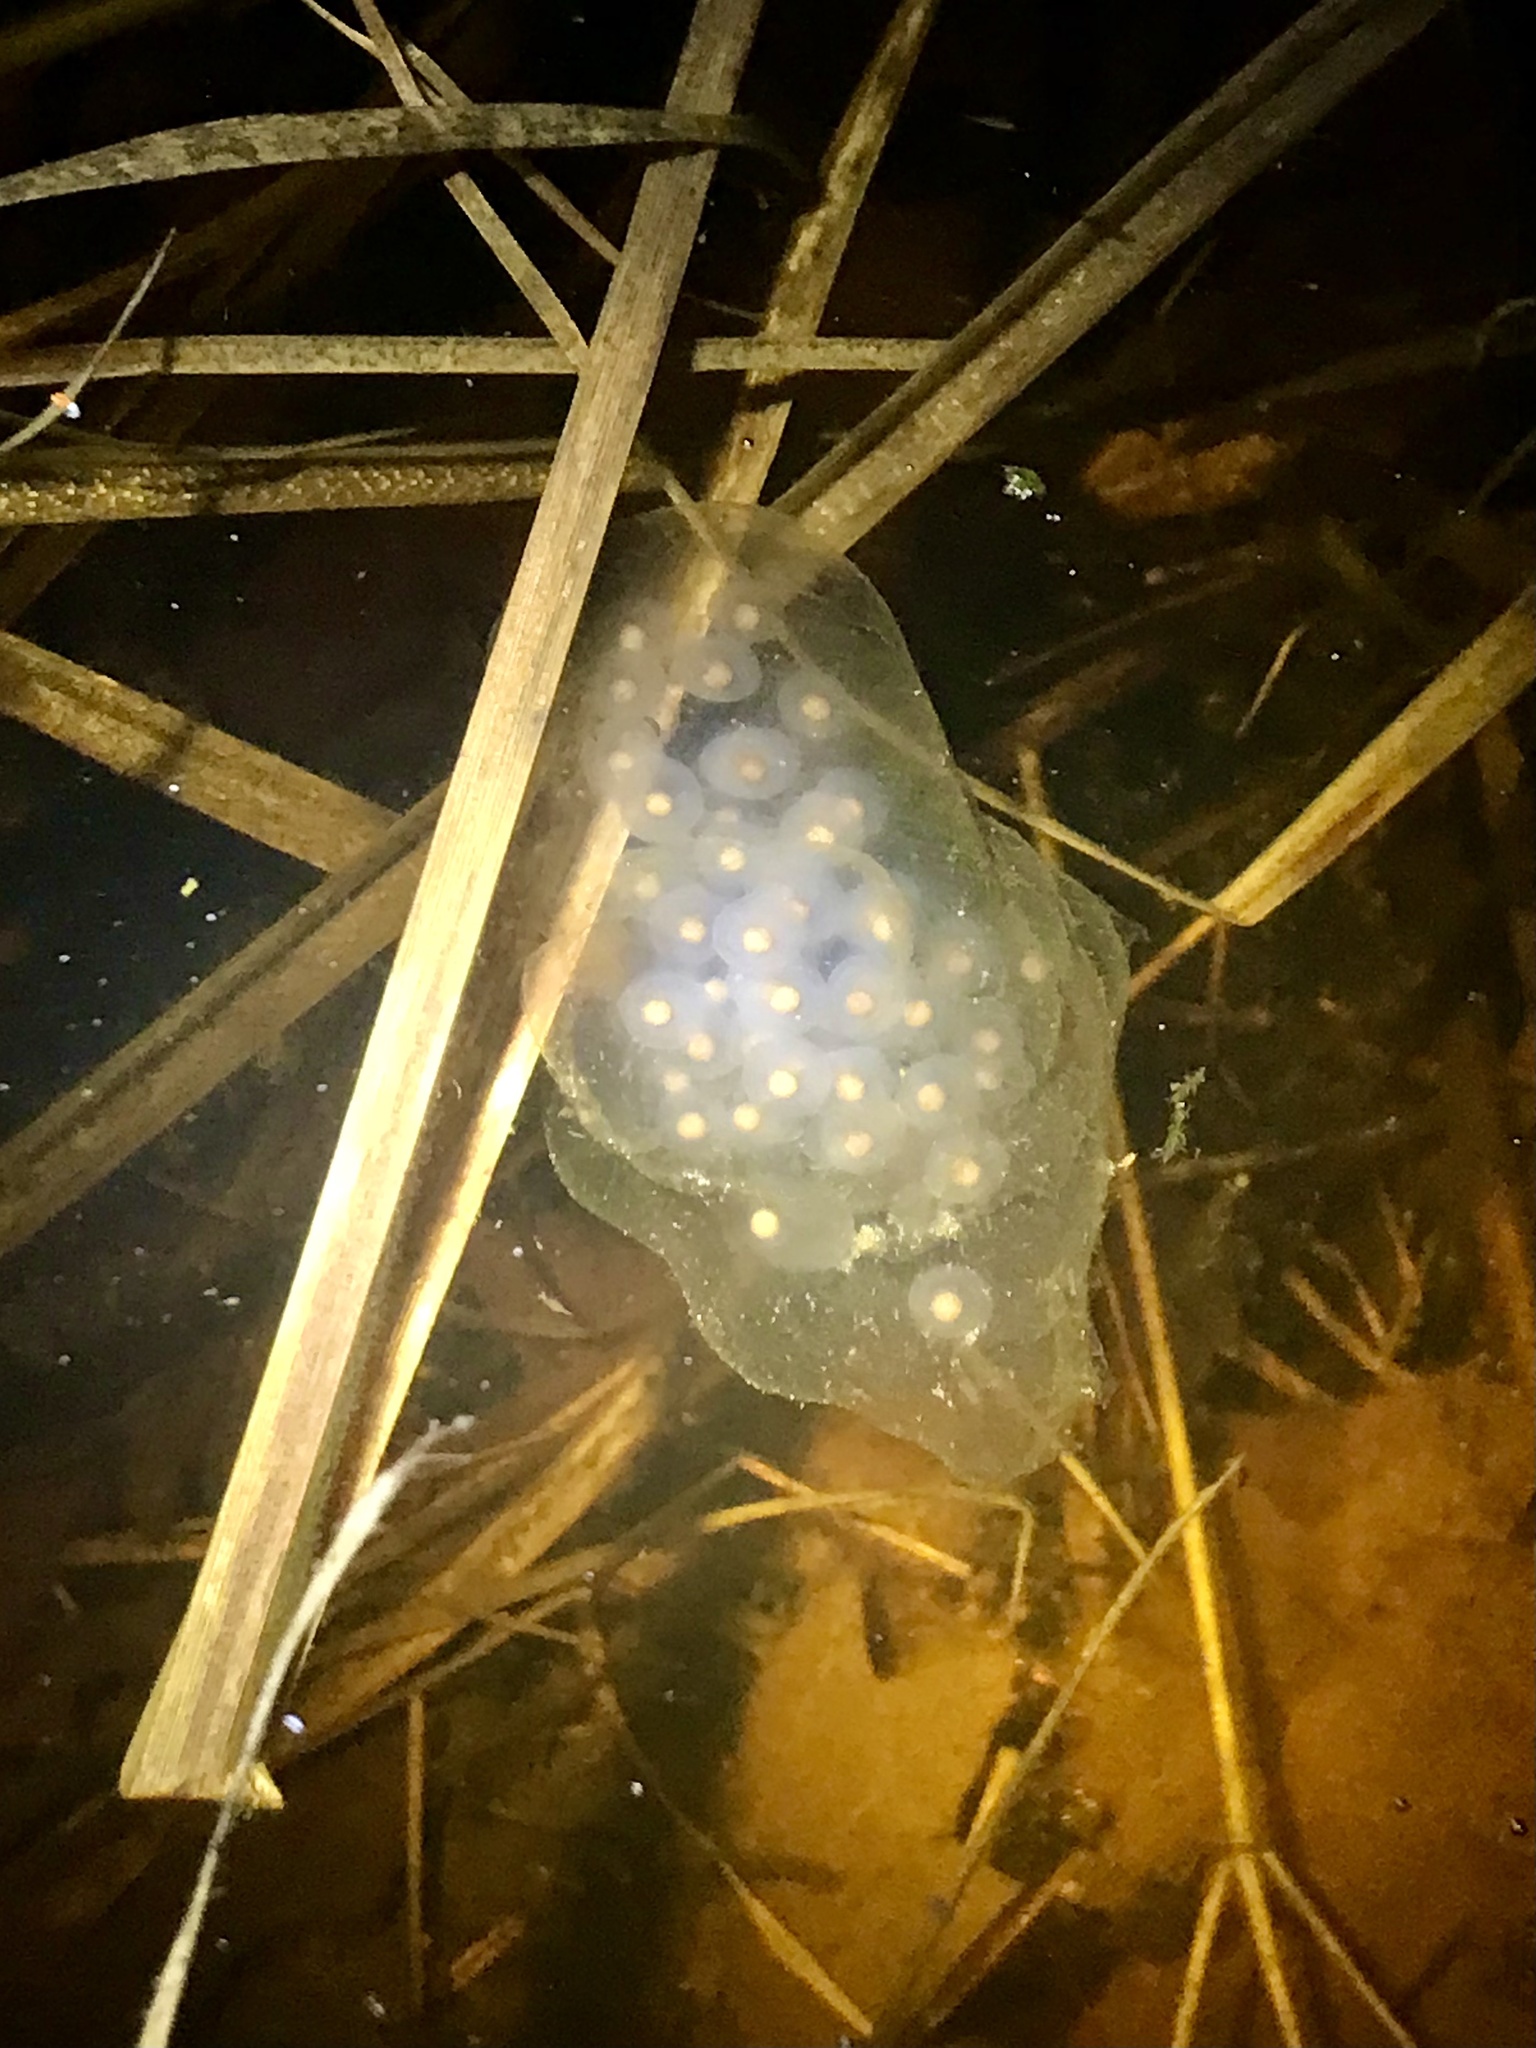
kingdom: Animalia
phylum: Chordata
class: Amphibia
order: Caudata
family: Ambystomatidae
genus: Ambystoma
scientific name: Ambystoma maculatum
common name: Spotted salamander
